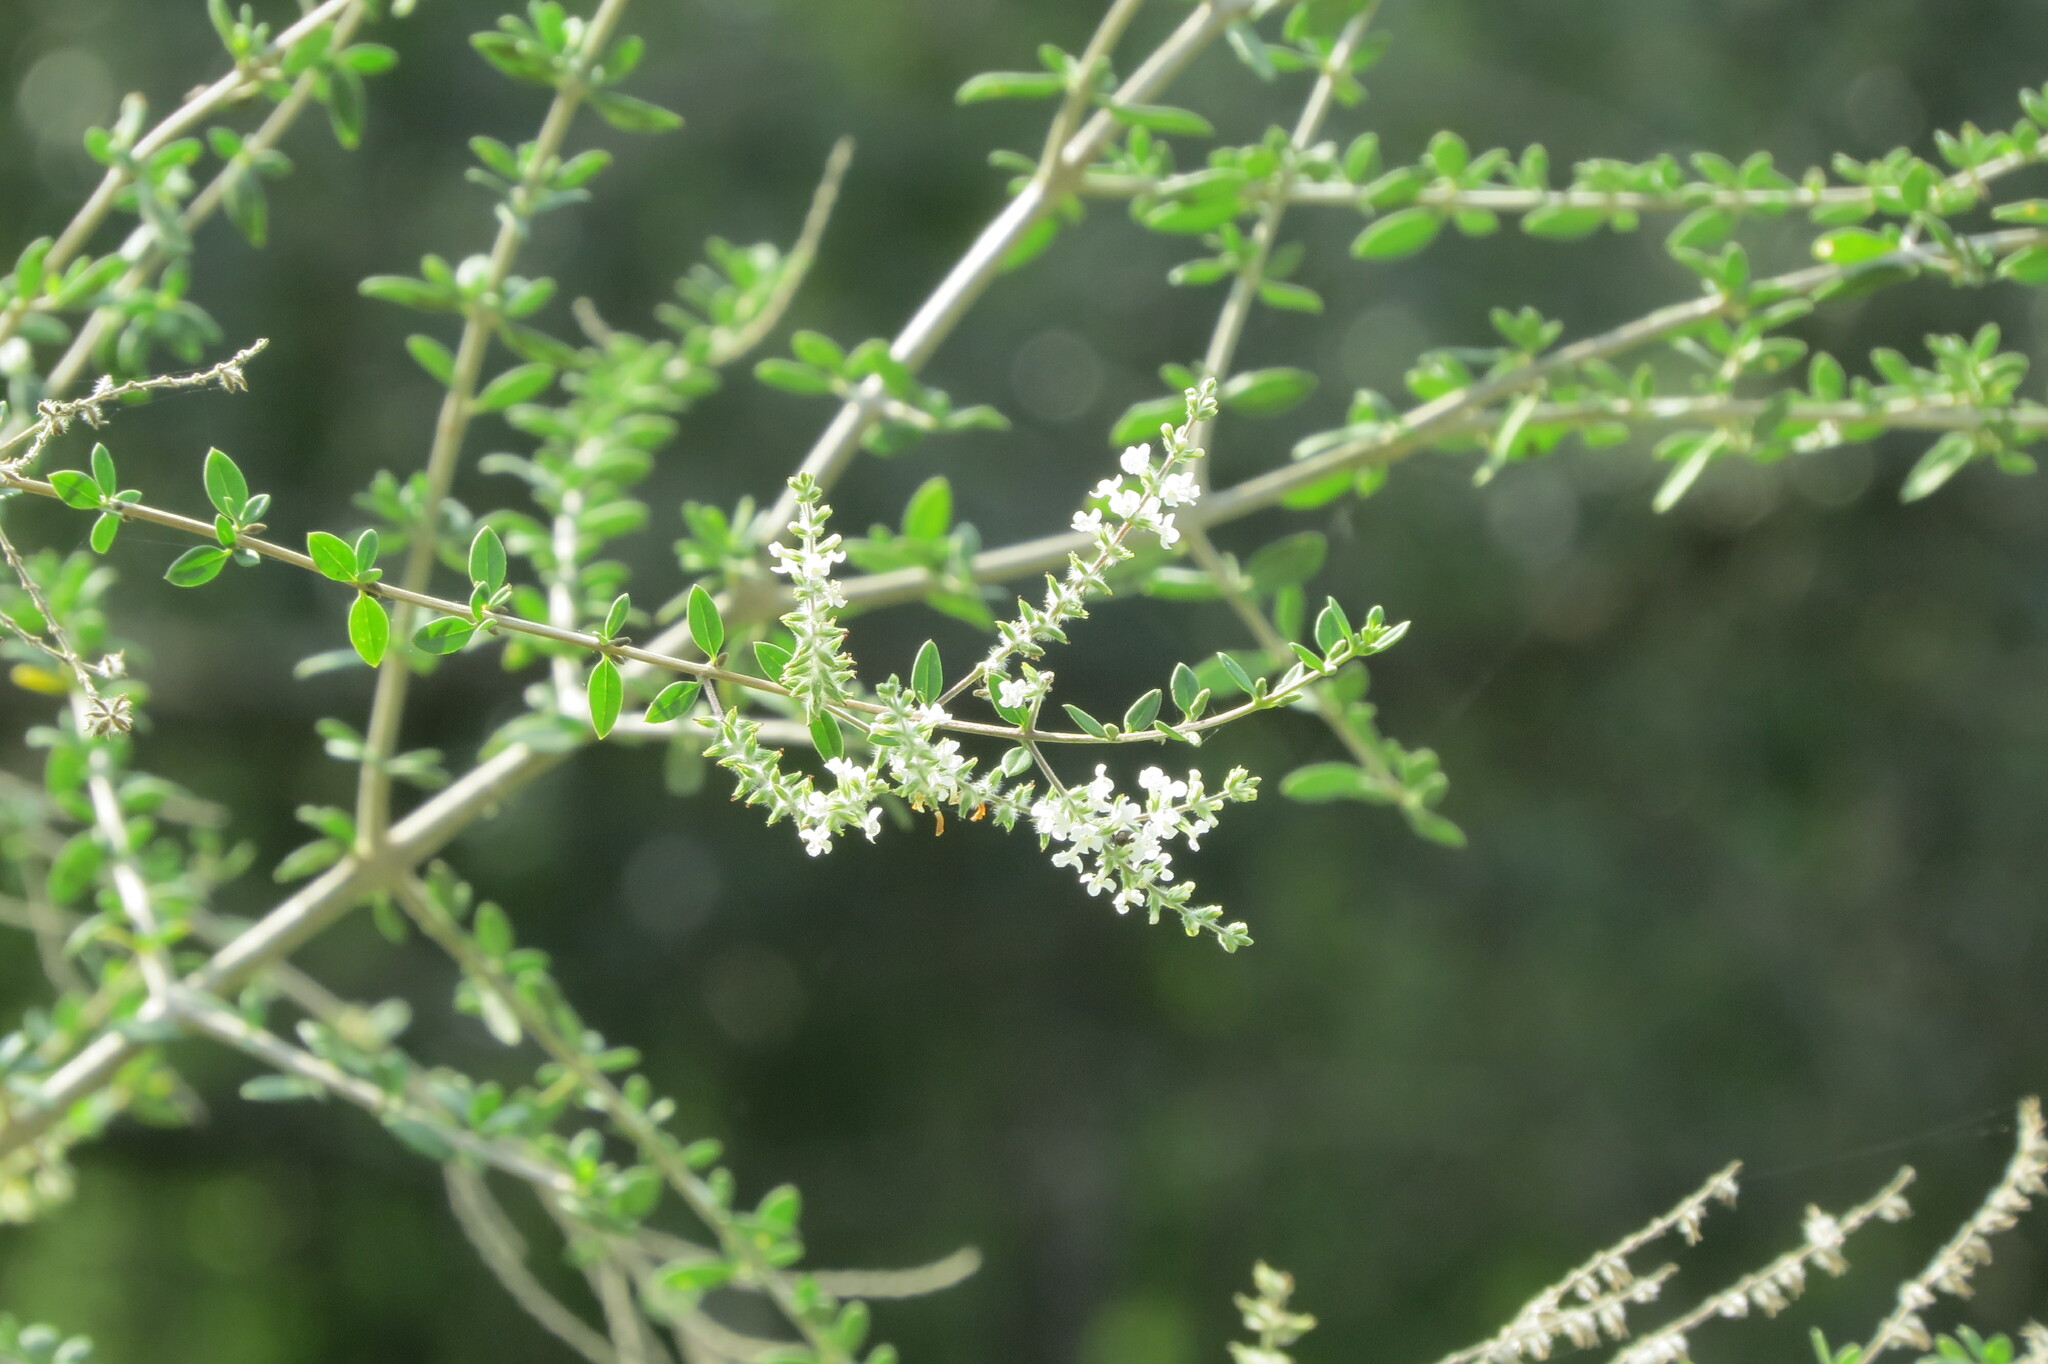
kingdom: Plantae
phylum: Tracheophyta
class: Magnoliopsida
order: Lamiales
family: Verbenaceae
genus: Aloysia
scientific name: Aloysia gratissima
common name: Common bee-brush
